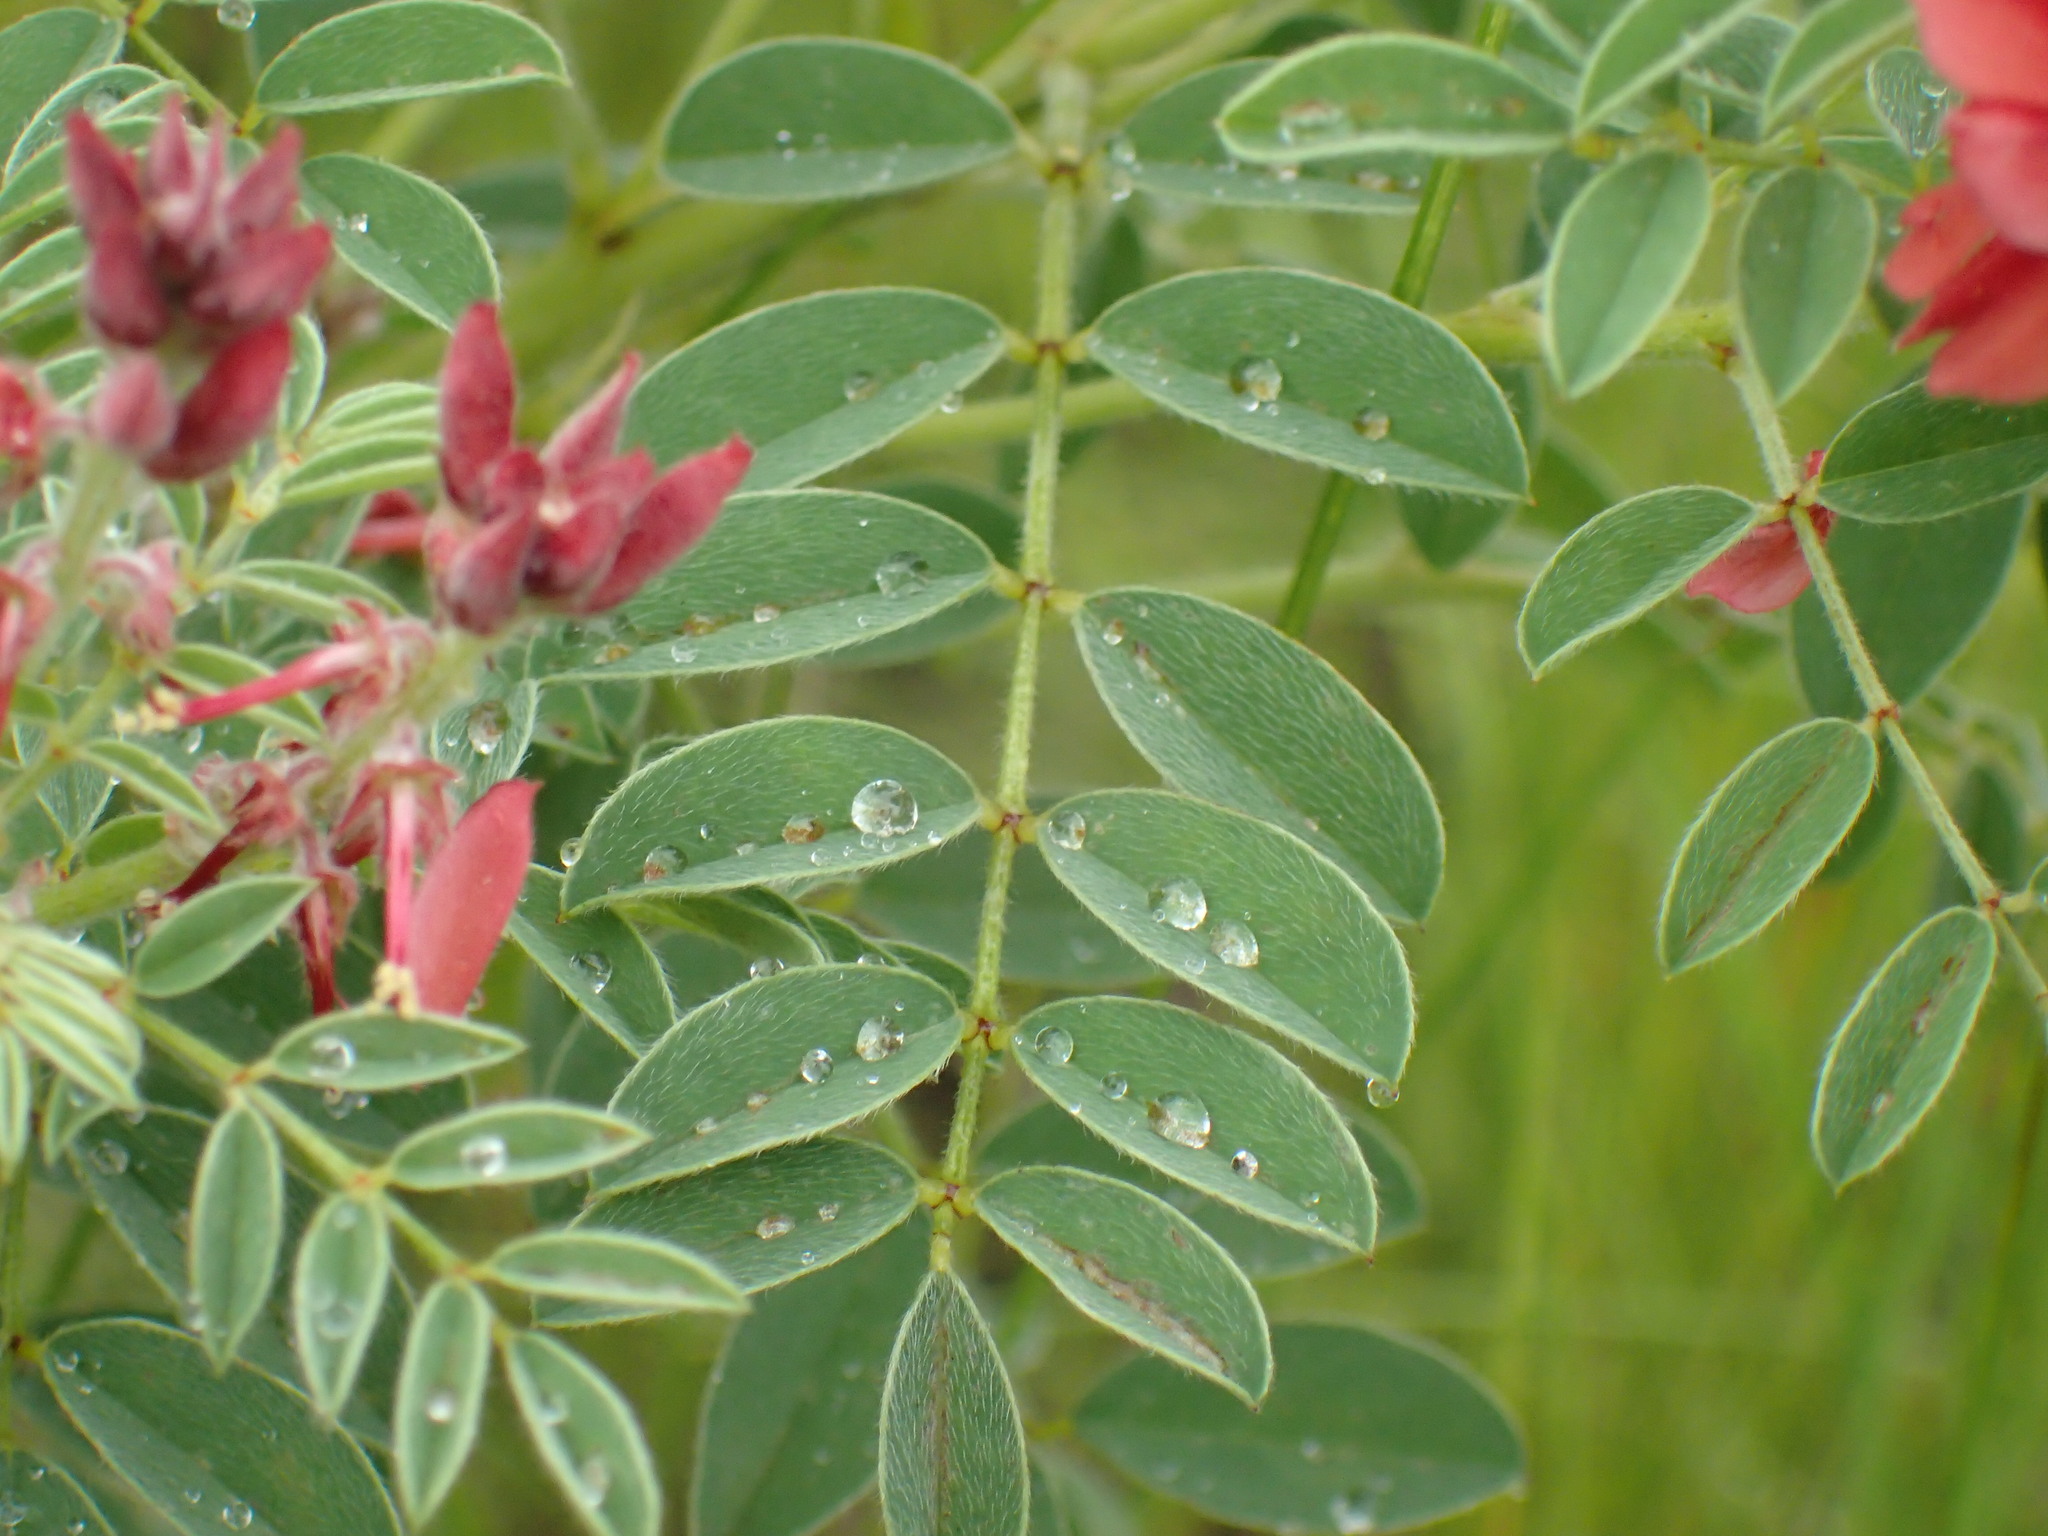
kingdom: Plantae
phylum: Tracheophyta
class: Magnoliopsida
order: Fabales
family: Fabaceae
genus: Indigofera
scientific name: Indigofera eriocarpa
